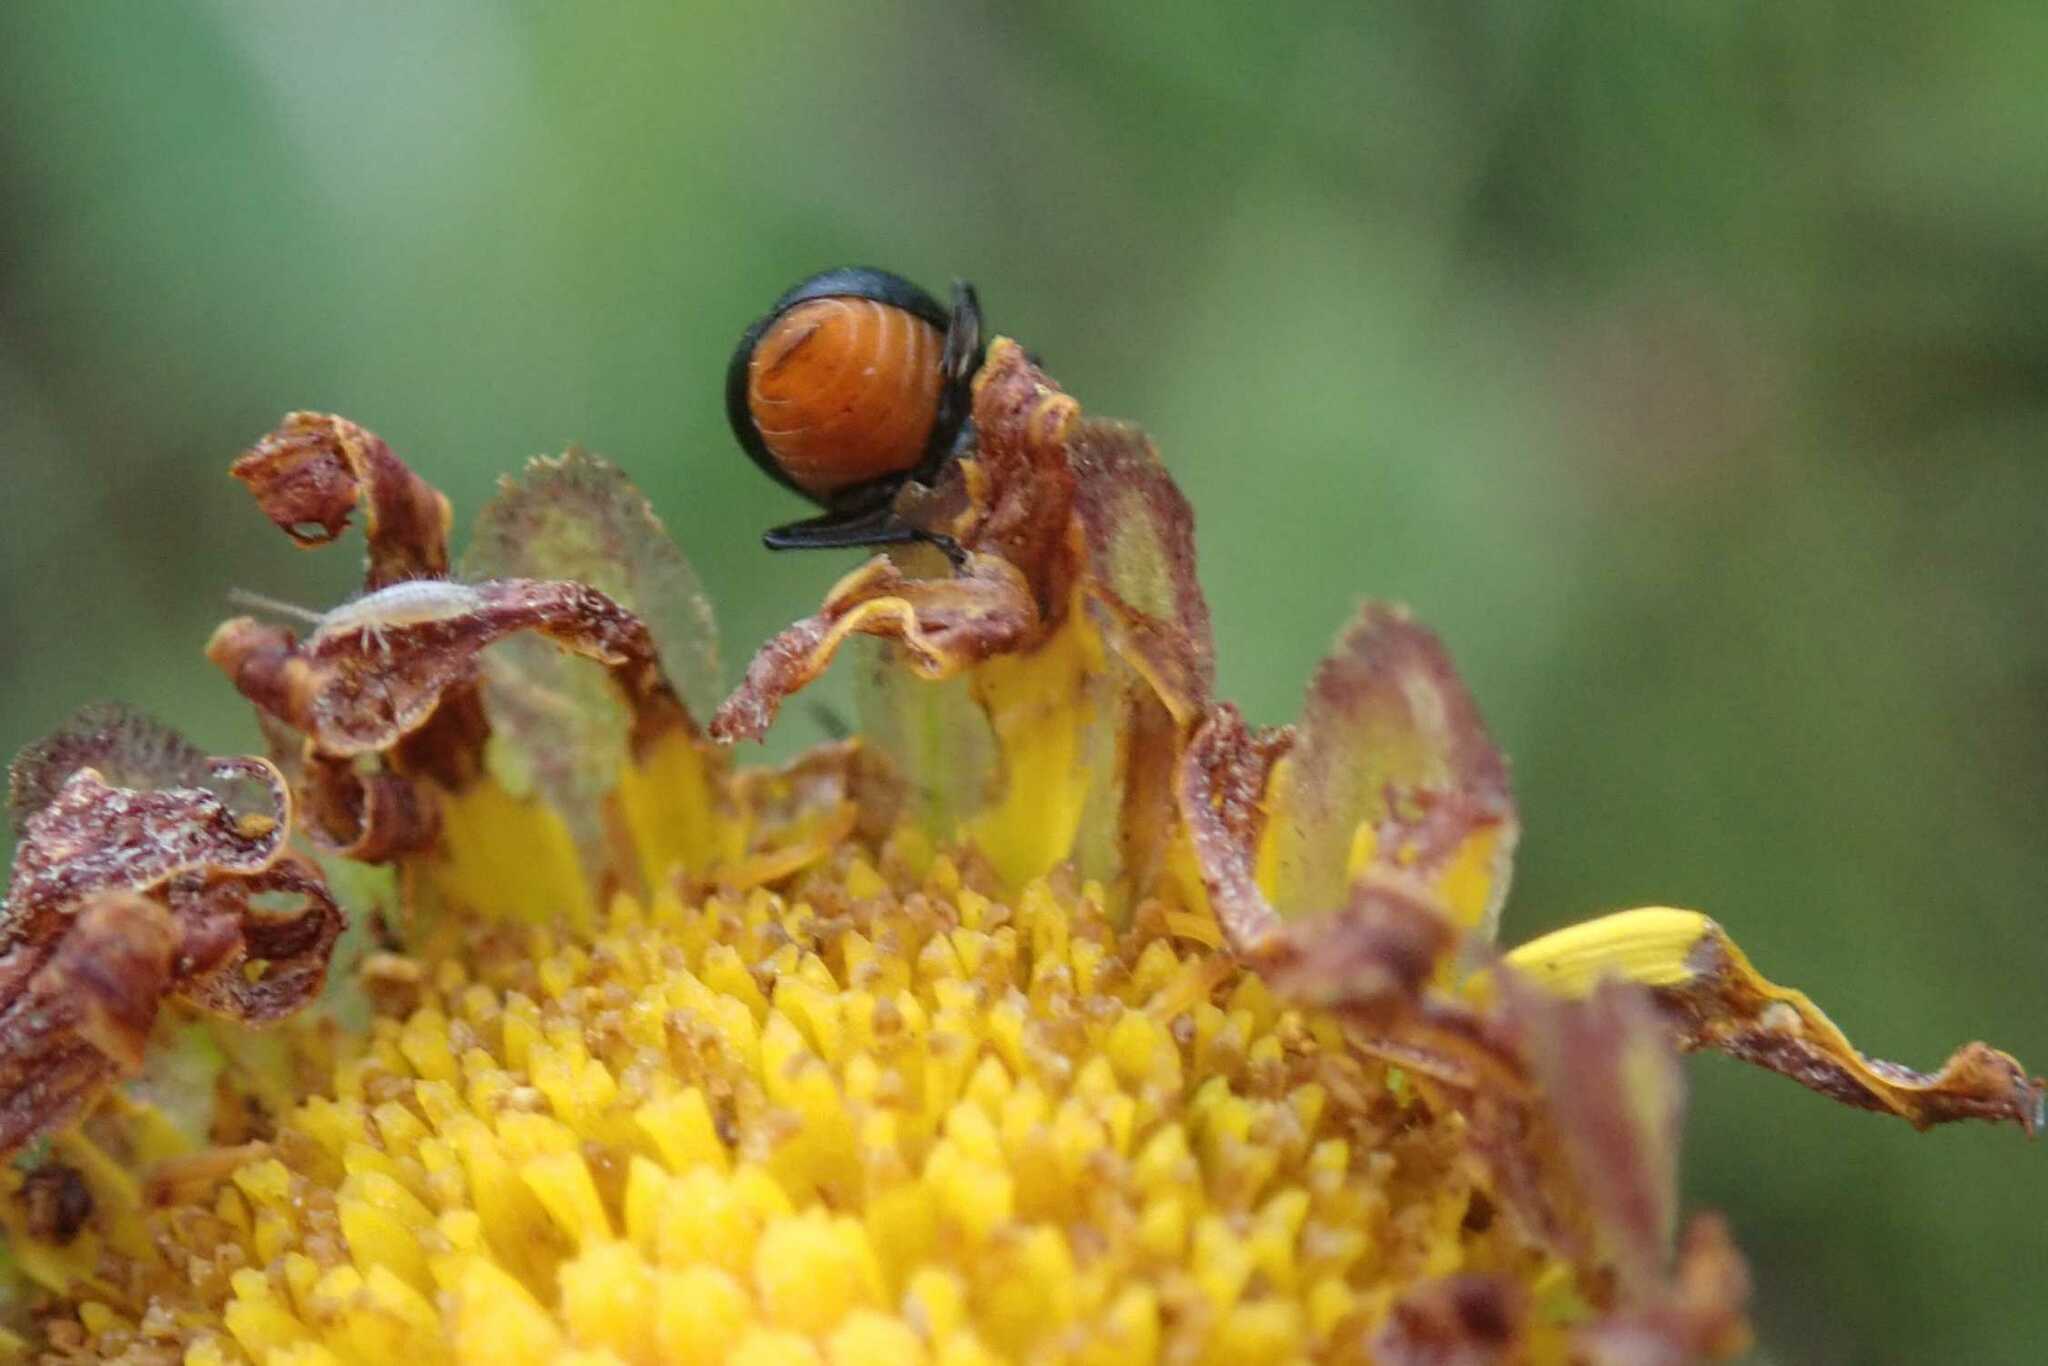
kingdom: Animalia
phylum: Arthropoda
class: Insecta
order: Coleoptera
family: Chrysomelidae
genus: Gastrida
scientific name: Gastrida
